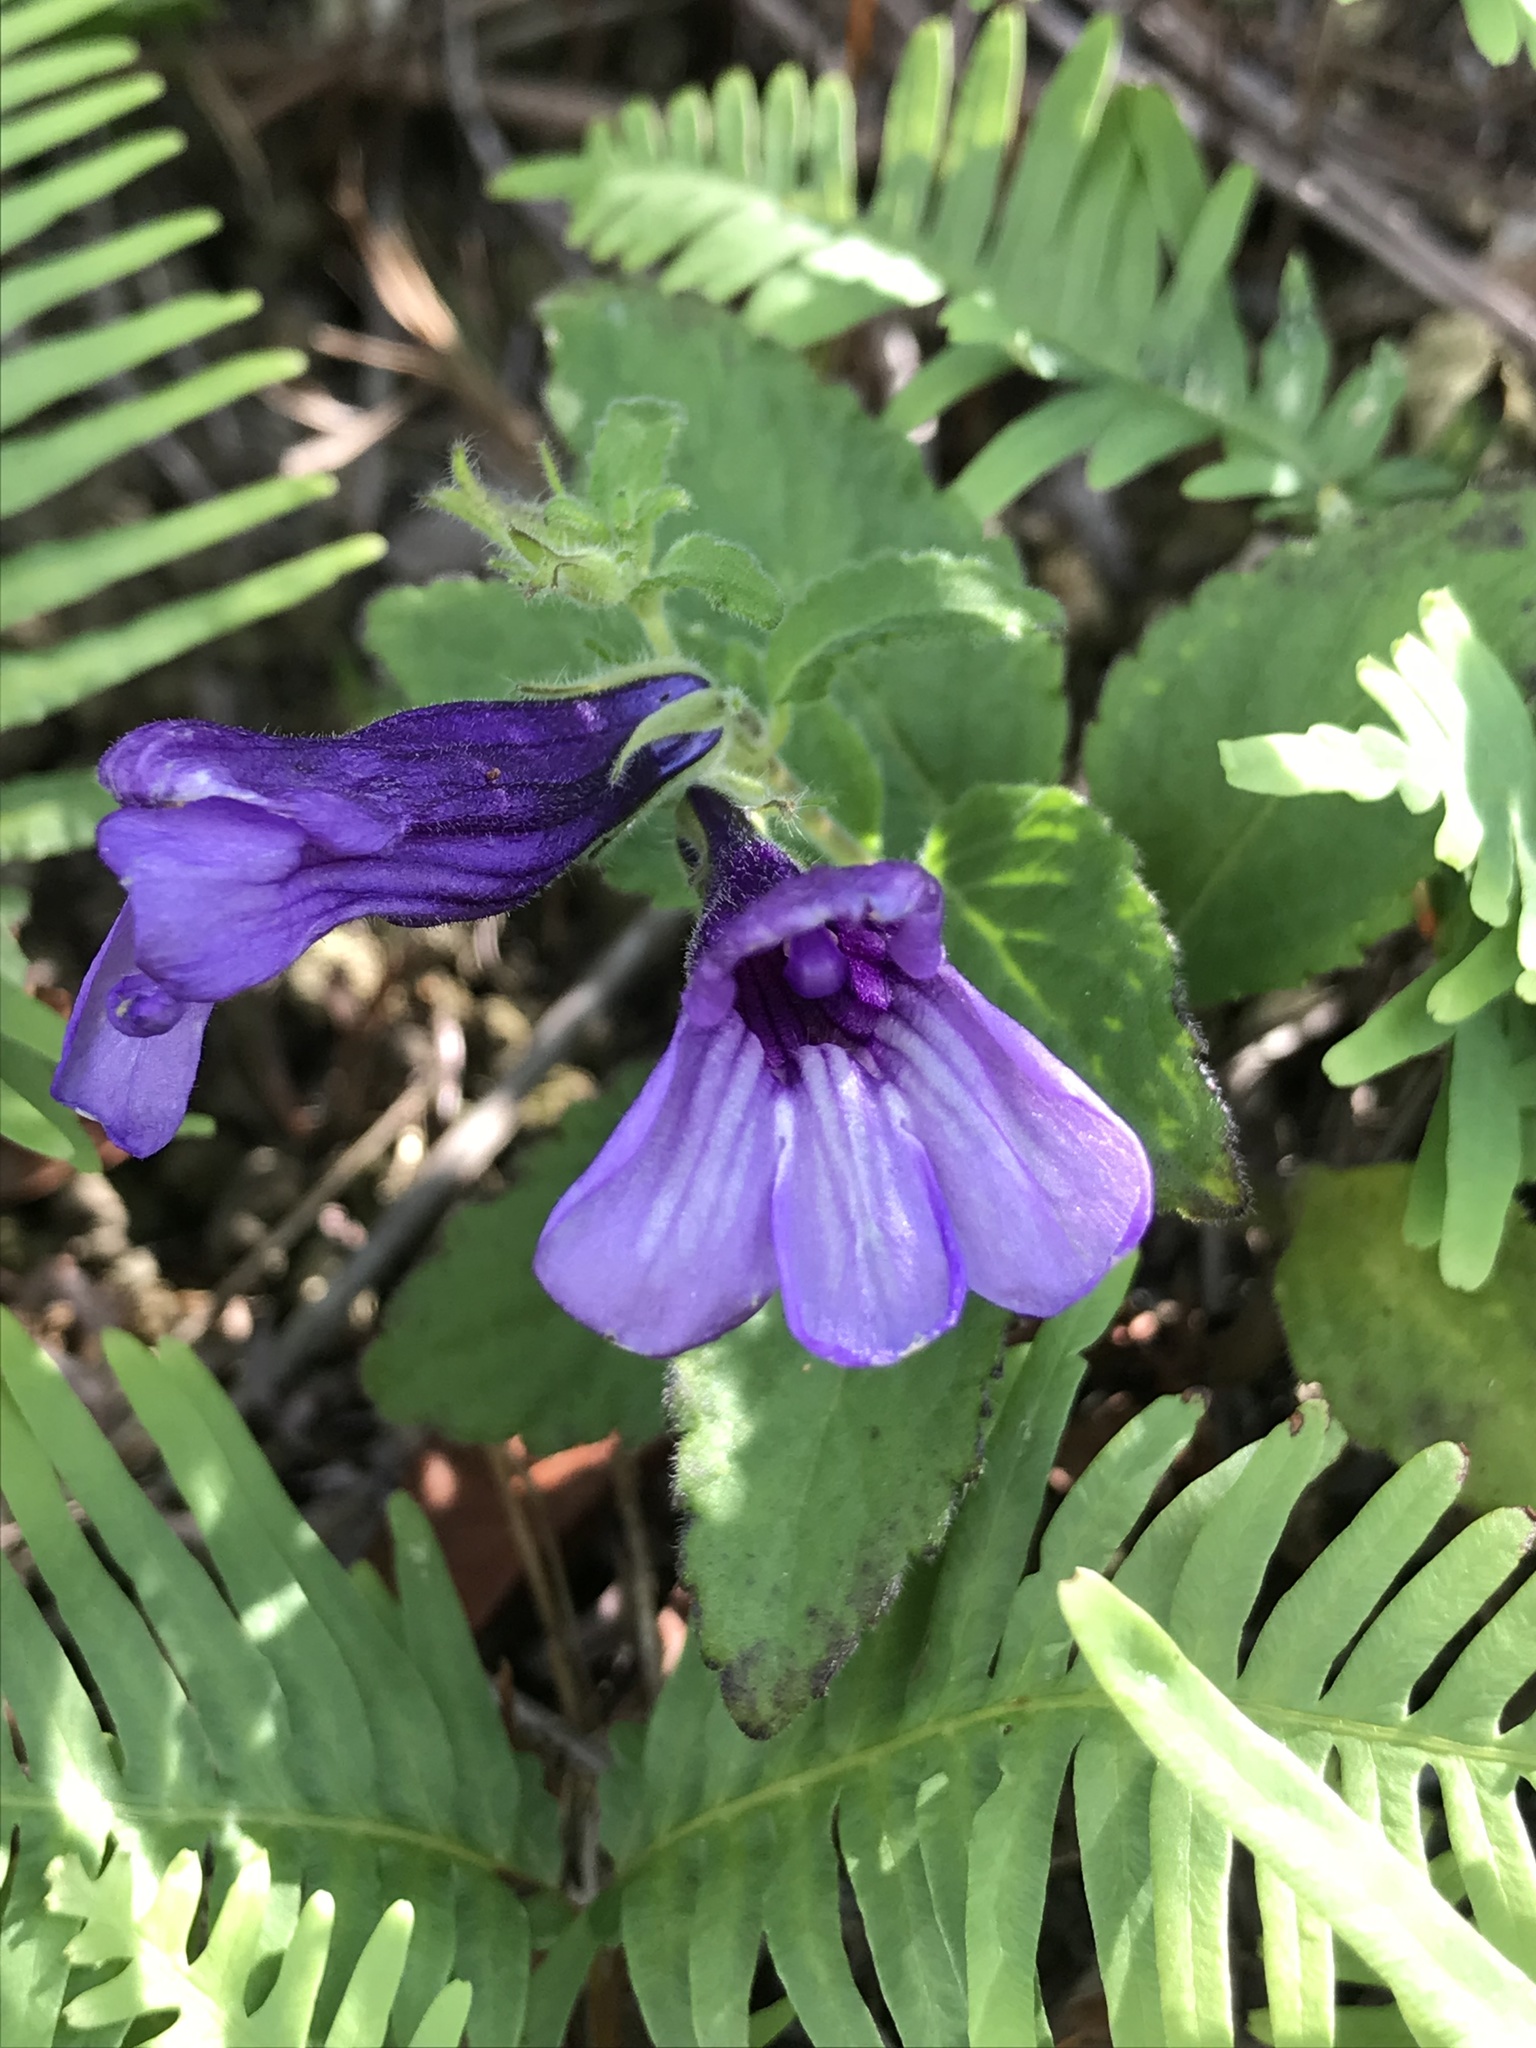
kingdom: Plantae
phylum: Tracheophyta
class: Magnoliopsida
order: Lamiales
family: Plantaginaceae
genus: Adenosma
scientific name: Adenosma glutinosa
